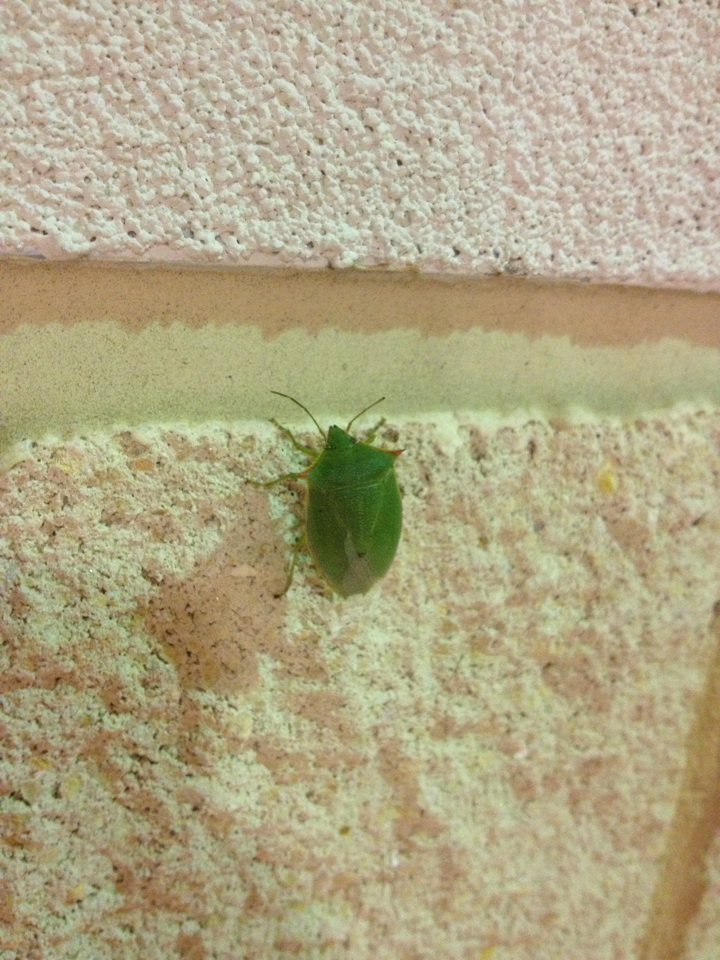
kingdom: Animalia
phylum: Arthropoda
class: Insecta
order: Hemiptera
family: Pentatomidae
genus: Loxa
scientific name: Loxa flavicollis
